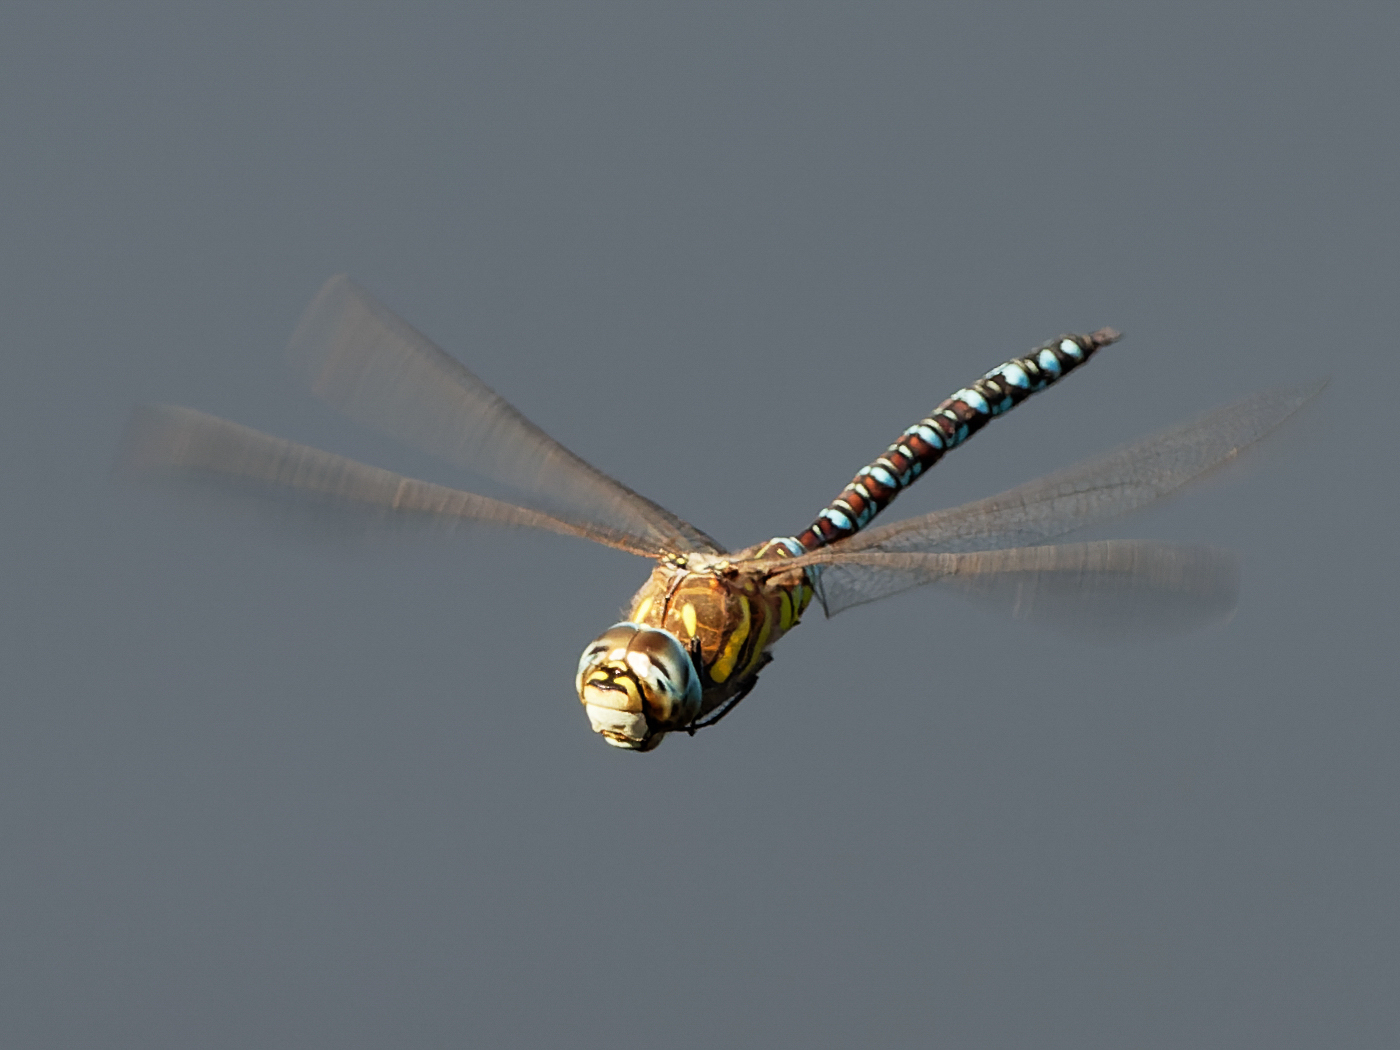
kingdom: Animalia
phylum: Arthropoda
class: Insecta
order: Odonata
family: Aeshnidae
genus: Aeshna
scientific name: Aeshna mixta
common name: Migrant hawker
